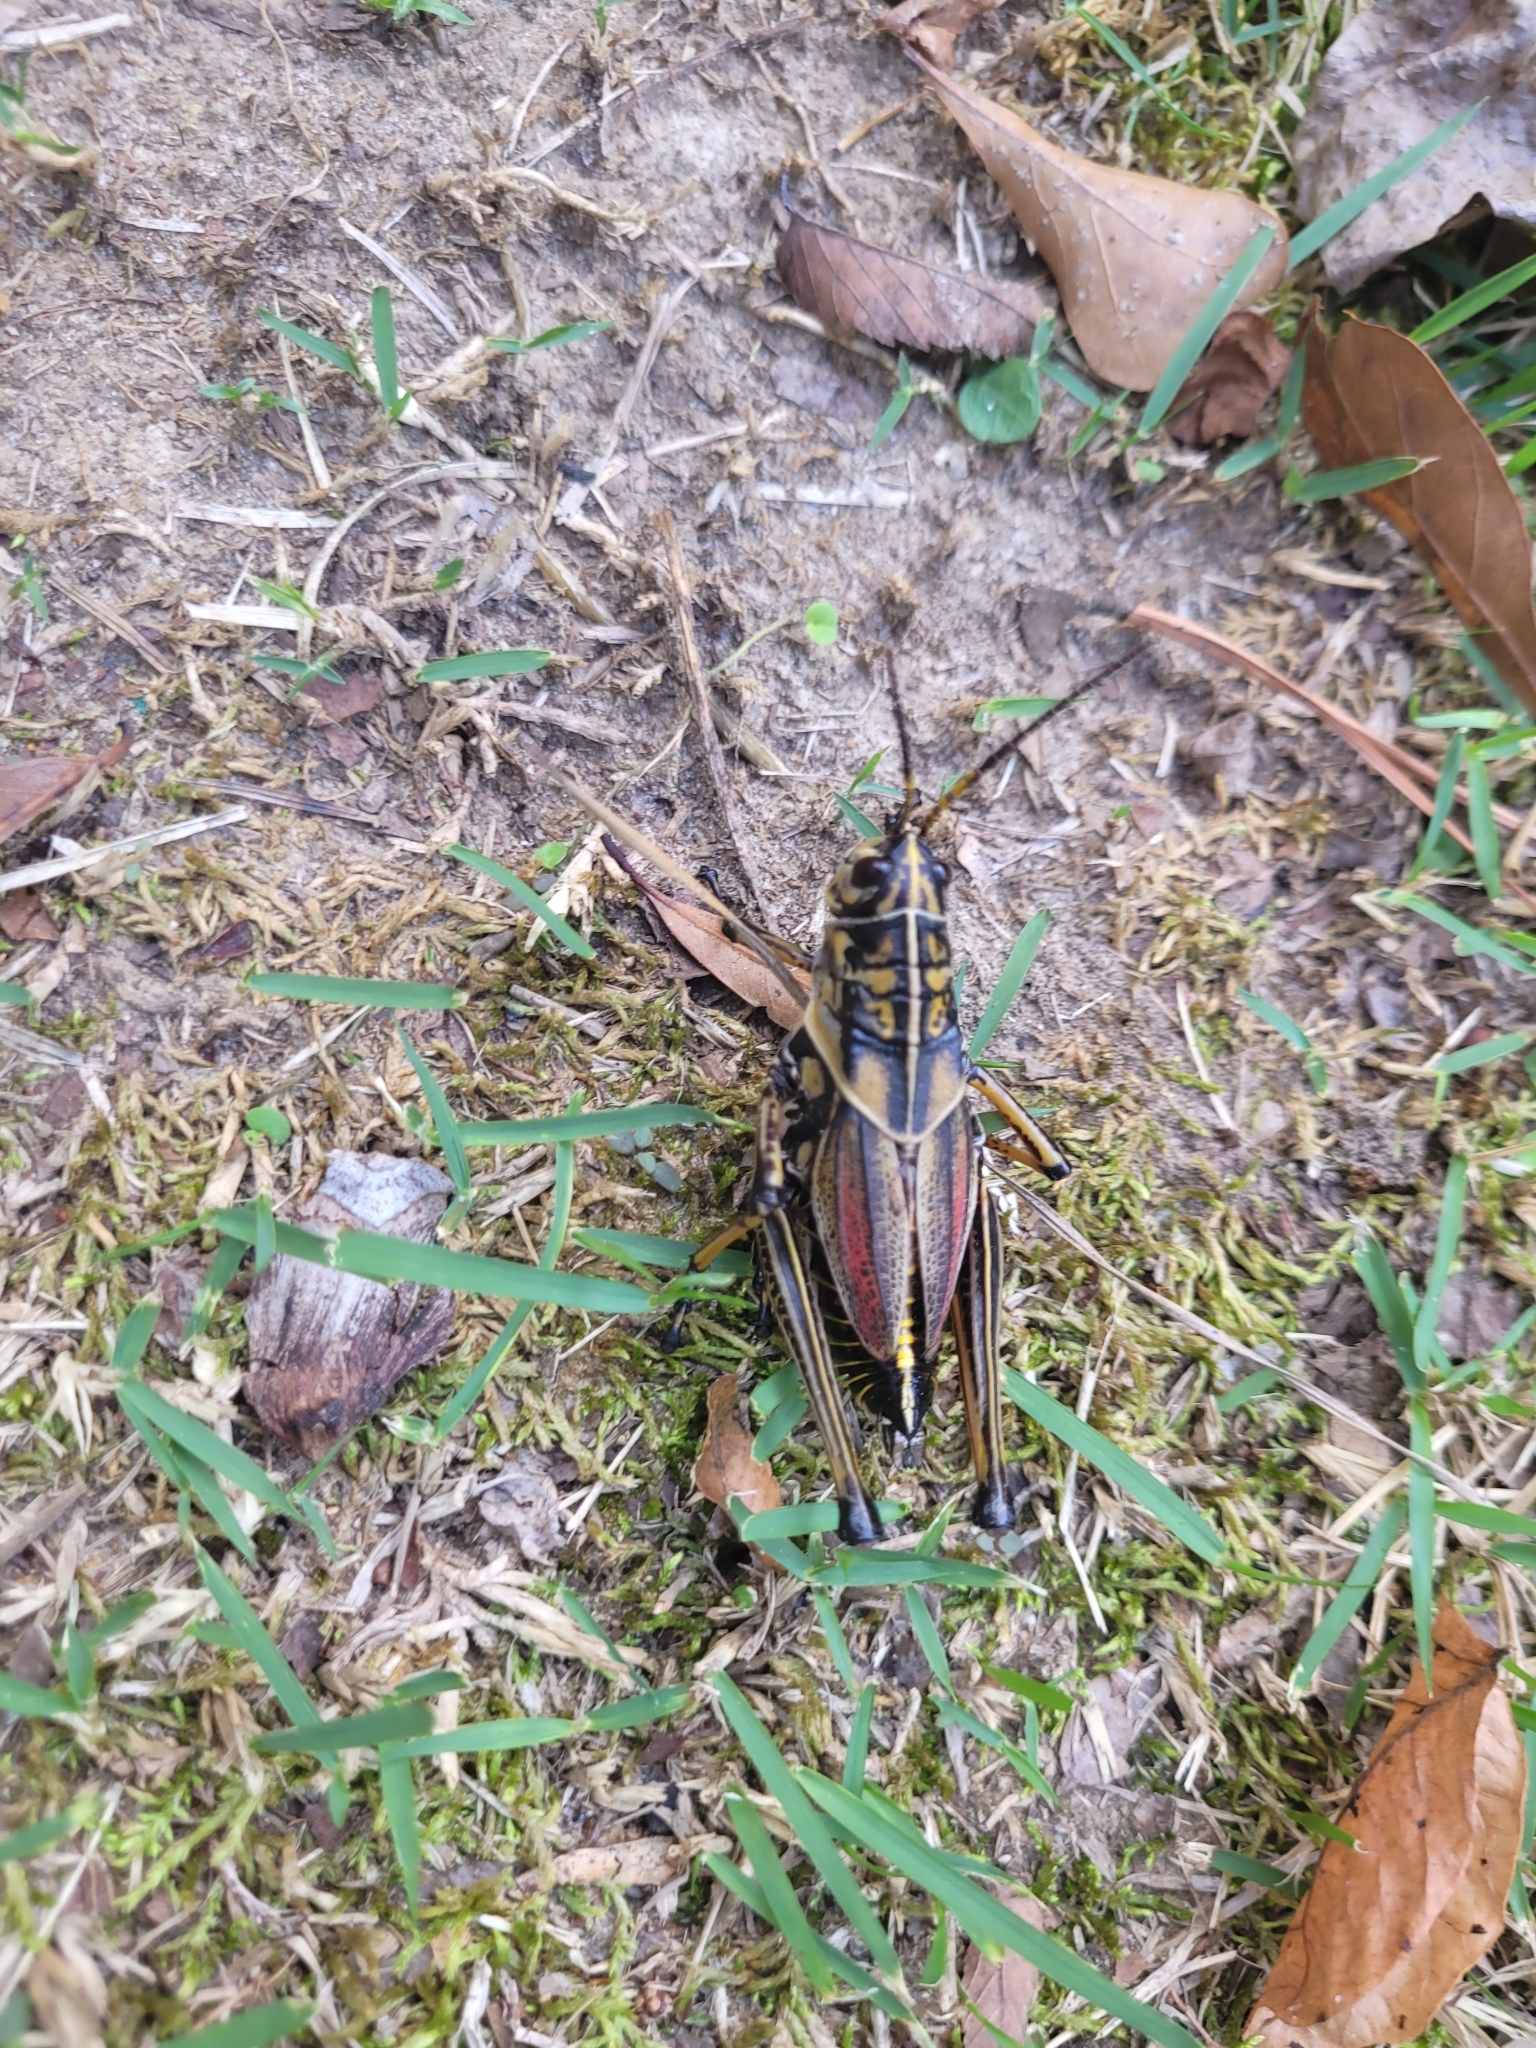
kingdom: Animalia
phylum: Arthropoda
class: Insecta
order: Orthoptera
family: Romaleidae
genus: Romalea
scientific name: Romalea microptera
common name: Eastern lubber grasshopper
